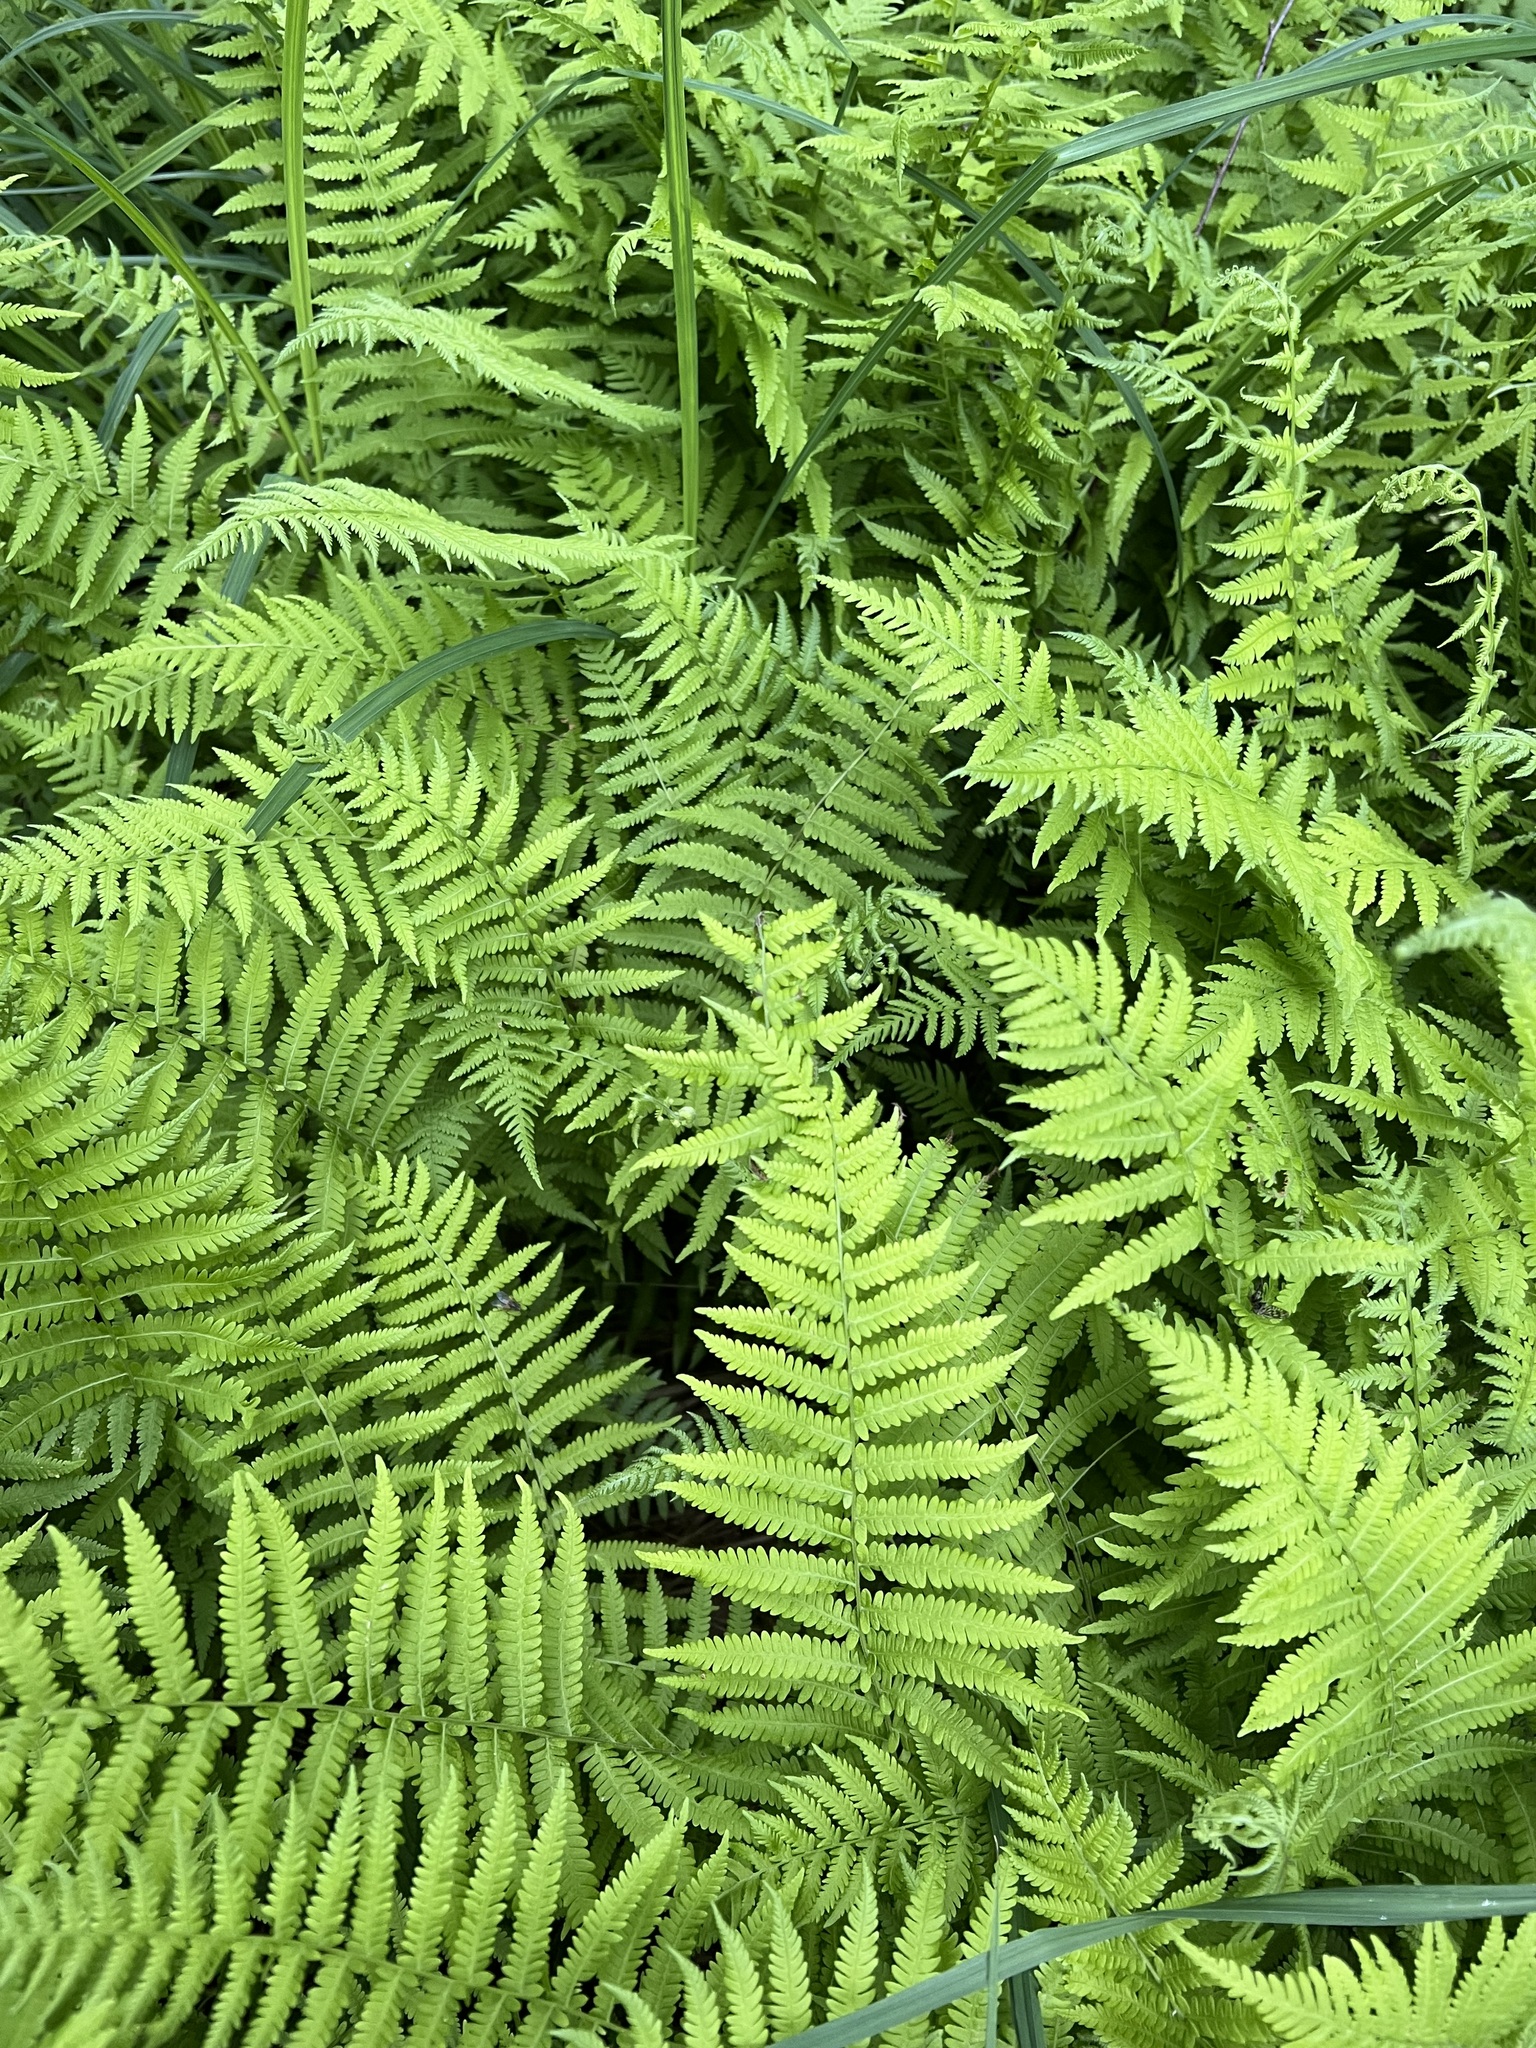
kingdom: Plantae
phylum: Tracheophyta
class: Polypodiopsida
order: Polypodiales
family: Thelypteridaceae
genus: Amauropelta
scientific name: Amauropelta noveboracensis
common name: New york fern
